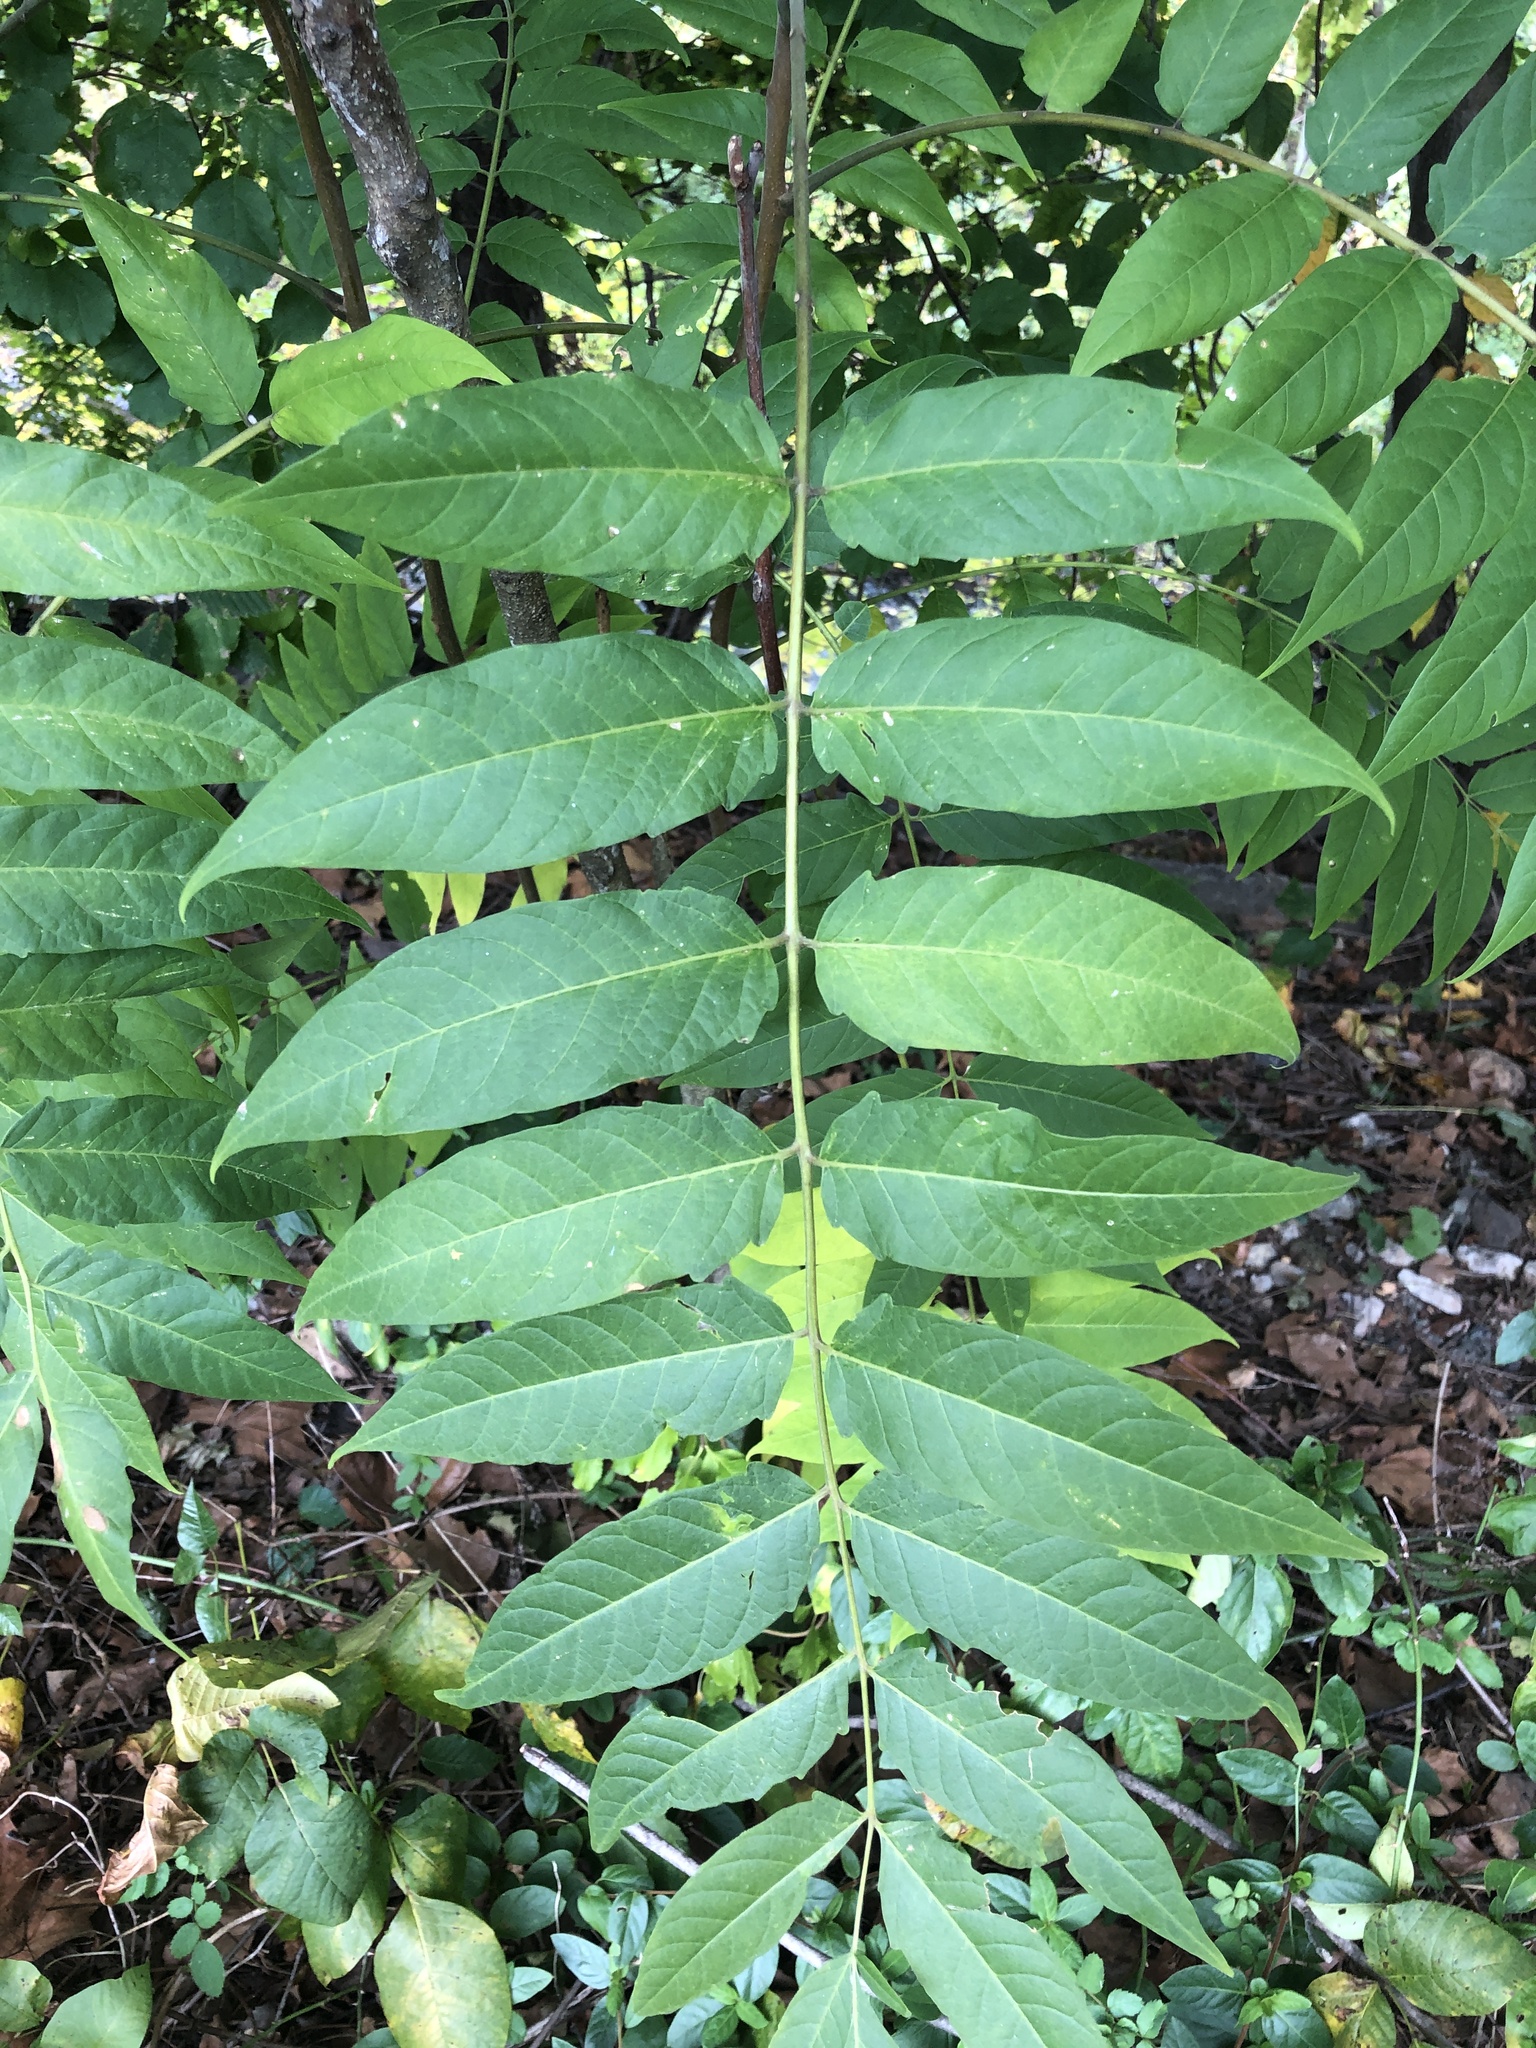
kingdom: Plantae
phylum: Tracheophyta
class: Magnoliopsida
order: Sapindales
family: Simaroubaceae
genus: Ailanthus
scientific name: Ailanthus altissima
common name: Tree-of-heaven
